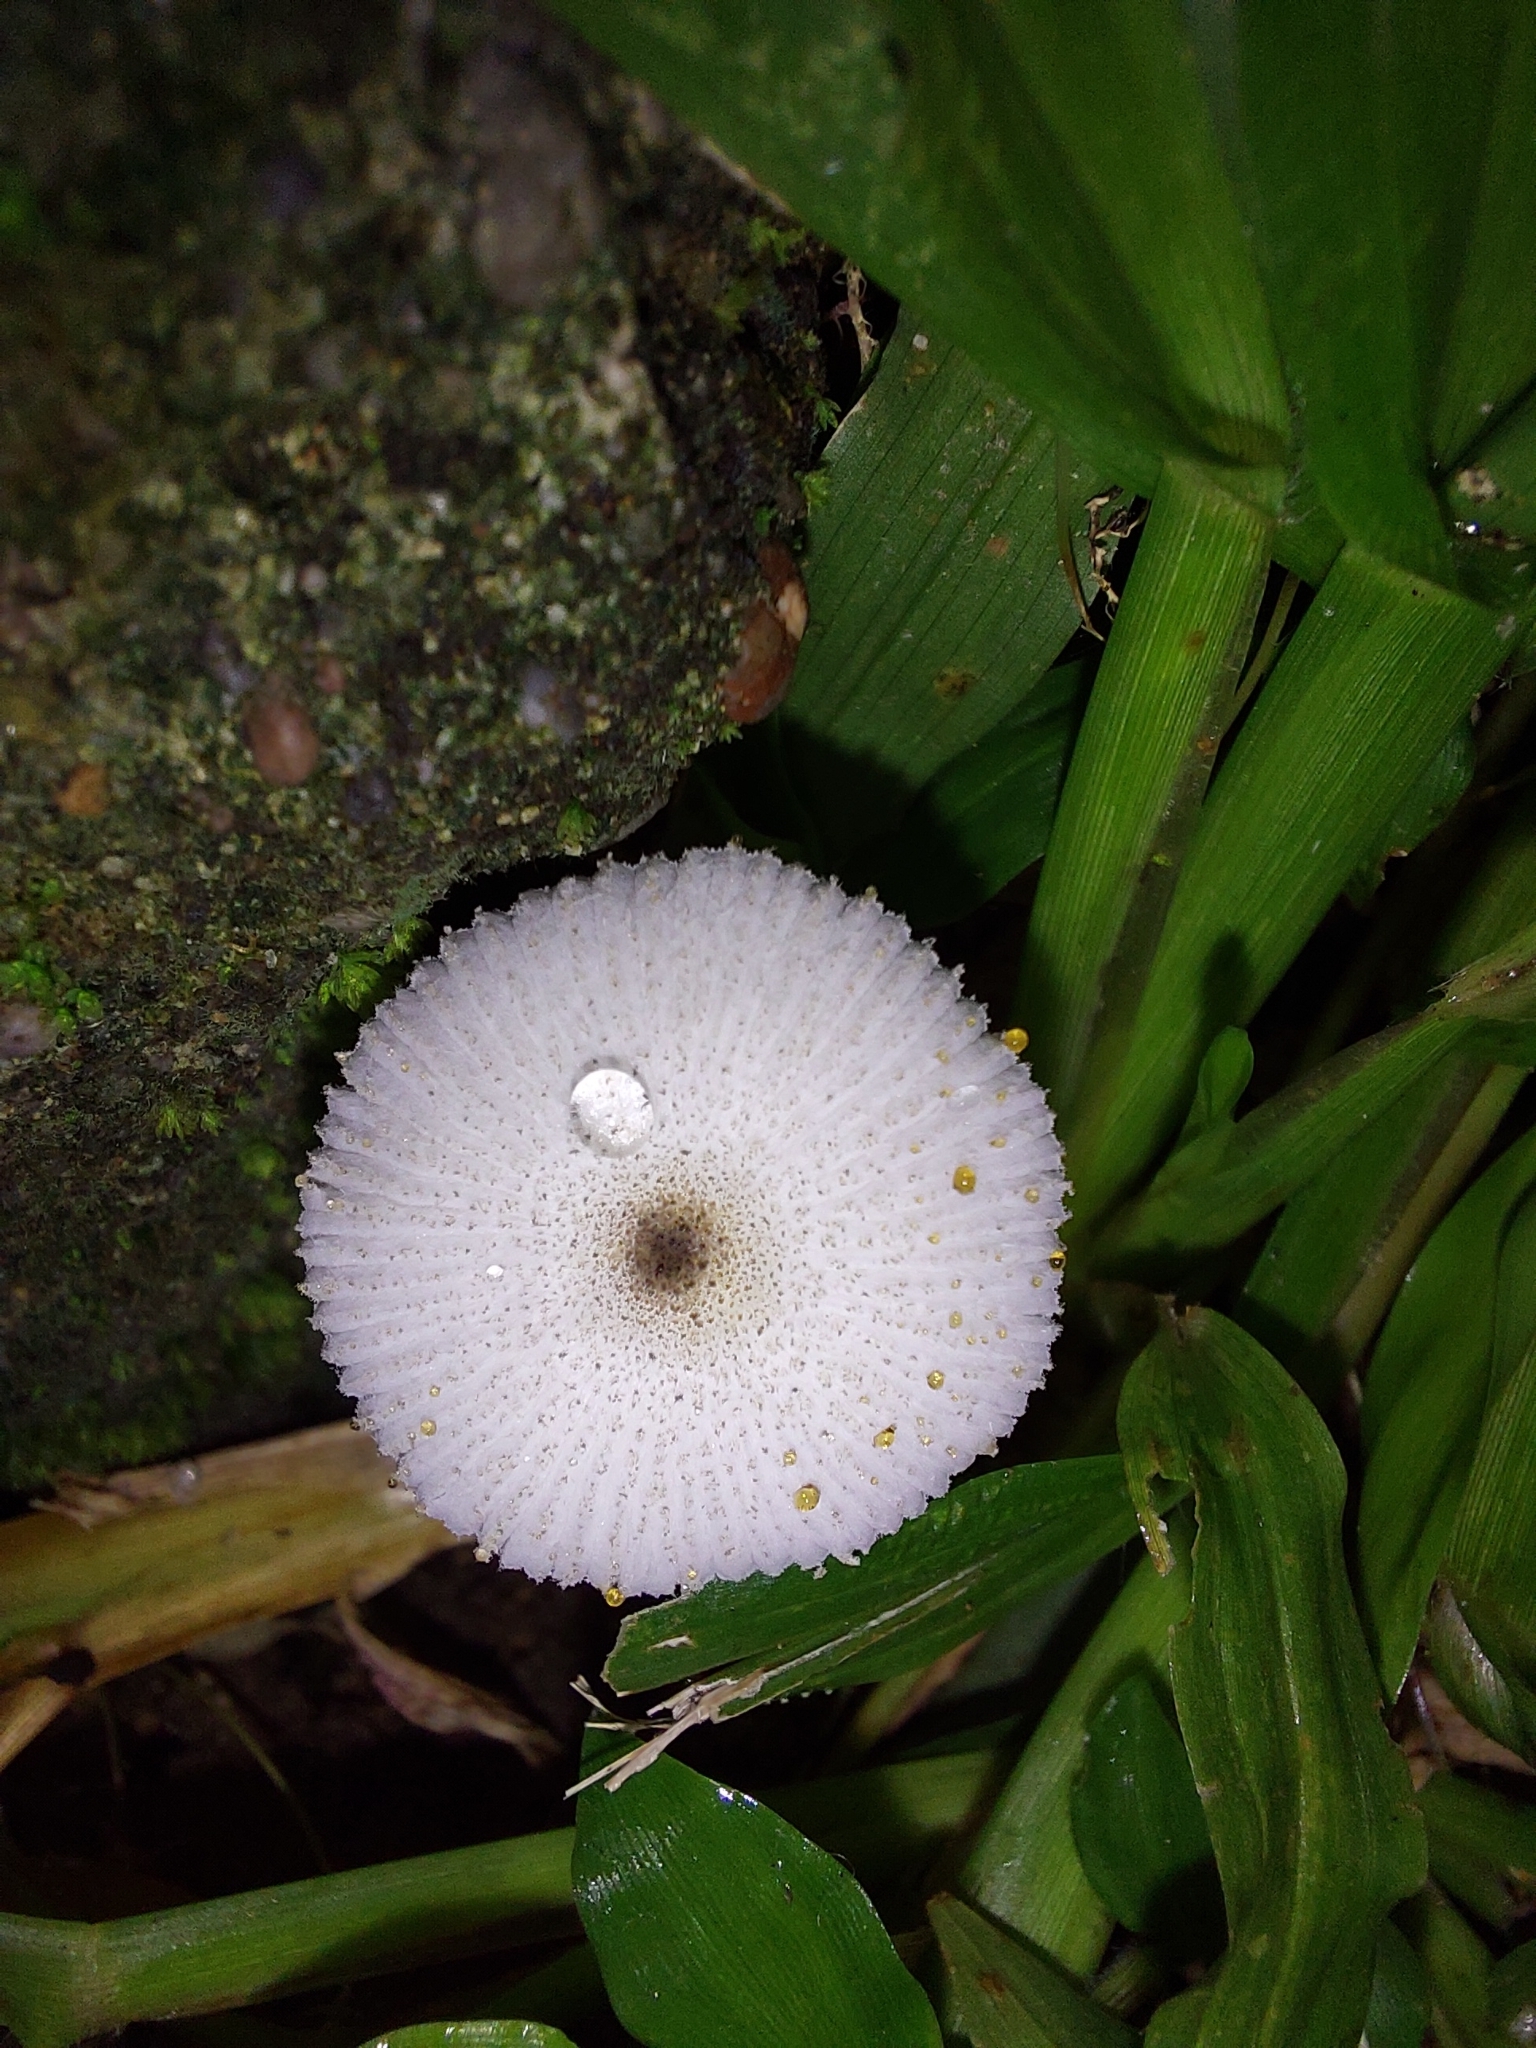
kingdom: Fungi
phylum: Basidiomycota
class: Agaricomycetes
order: Agaricales
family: Agaricaceae
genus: Leucocoprinus
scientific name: Leucocoprinus brebissonii
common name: Skullcap dapperling
